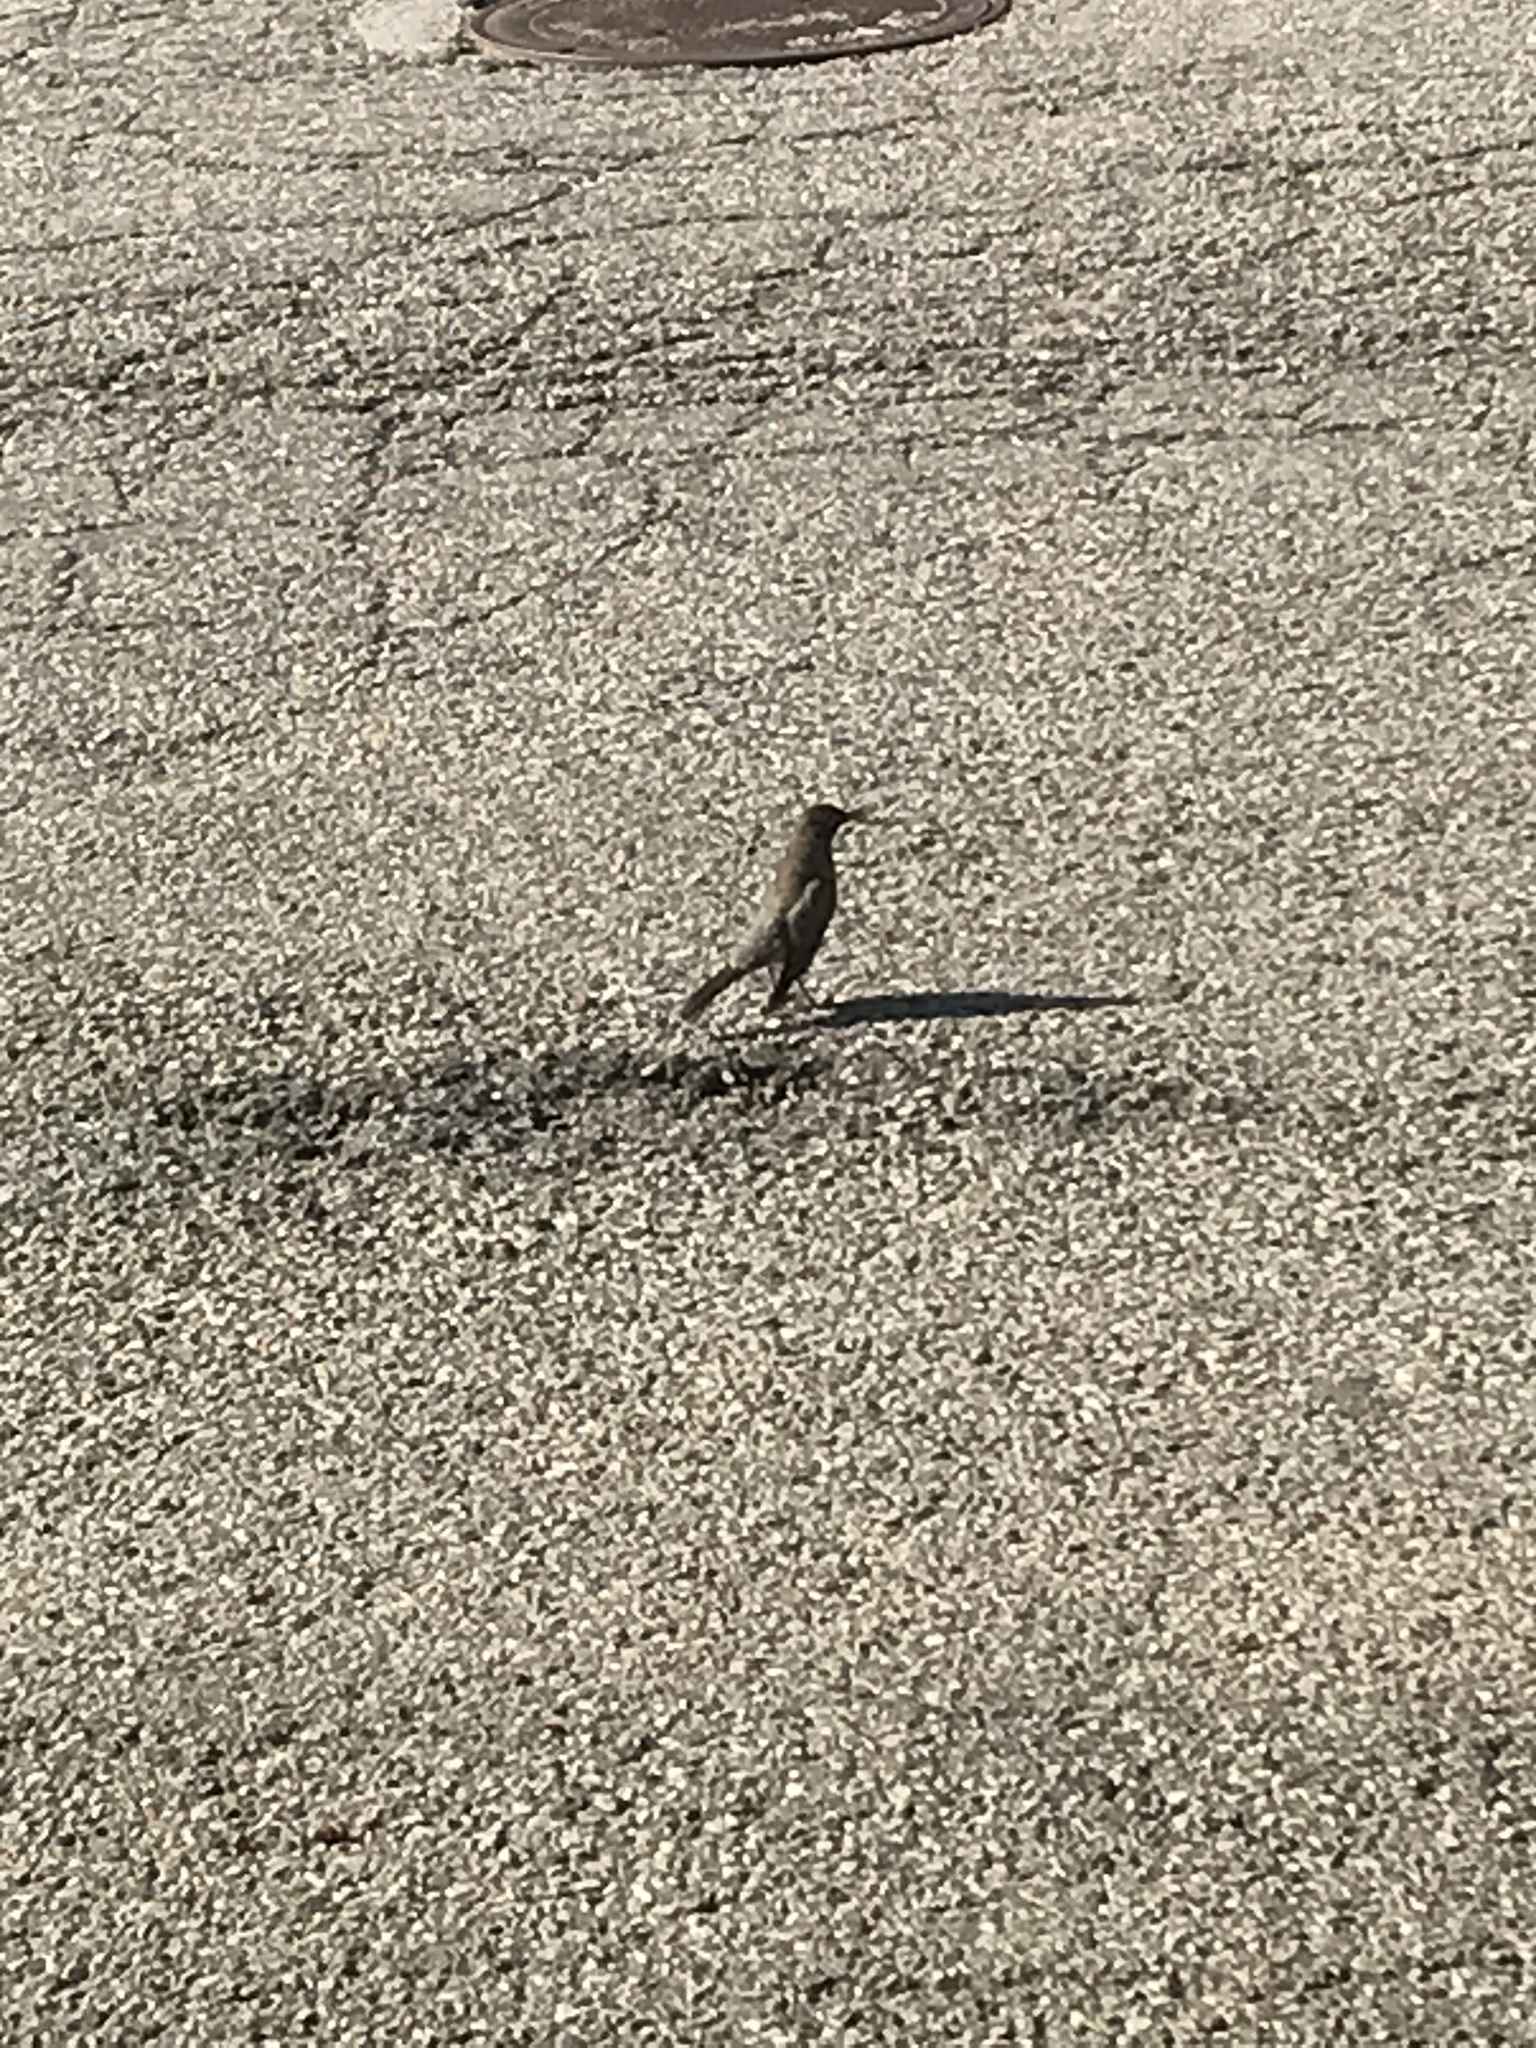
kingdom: Animalia
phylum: Chordata
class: Aves
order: Passeriformes
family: Turdidae
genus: Turdus
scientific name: Turdus migratorius
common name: American robin
